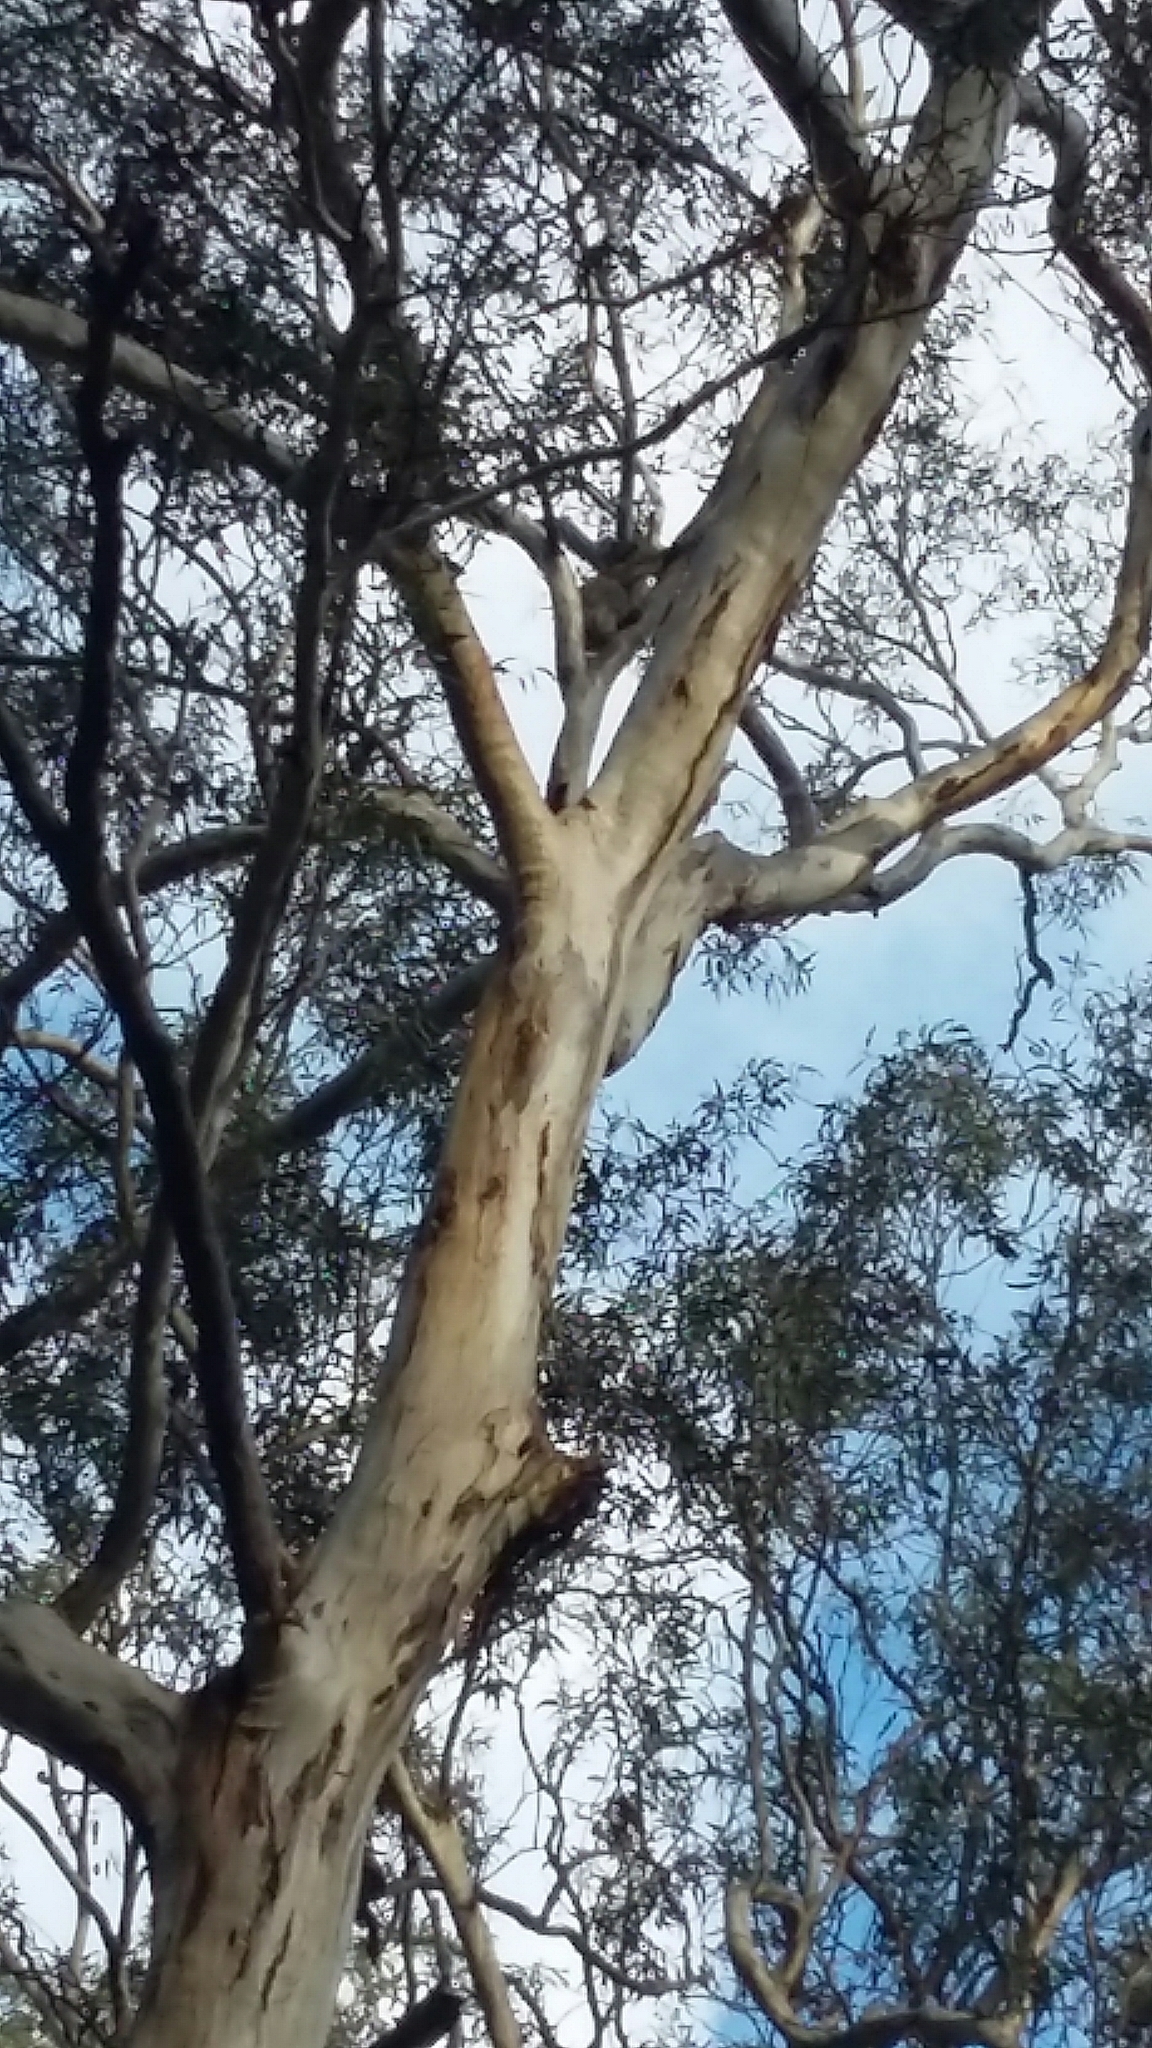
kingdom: Animalia
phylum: Chordata
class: Mammalia
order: Diprotodontia
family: Phascolarctidae
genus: Phascolarctos
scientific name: Phascolarctos cinereus
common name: Koala
